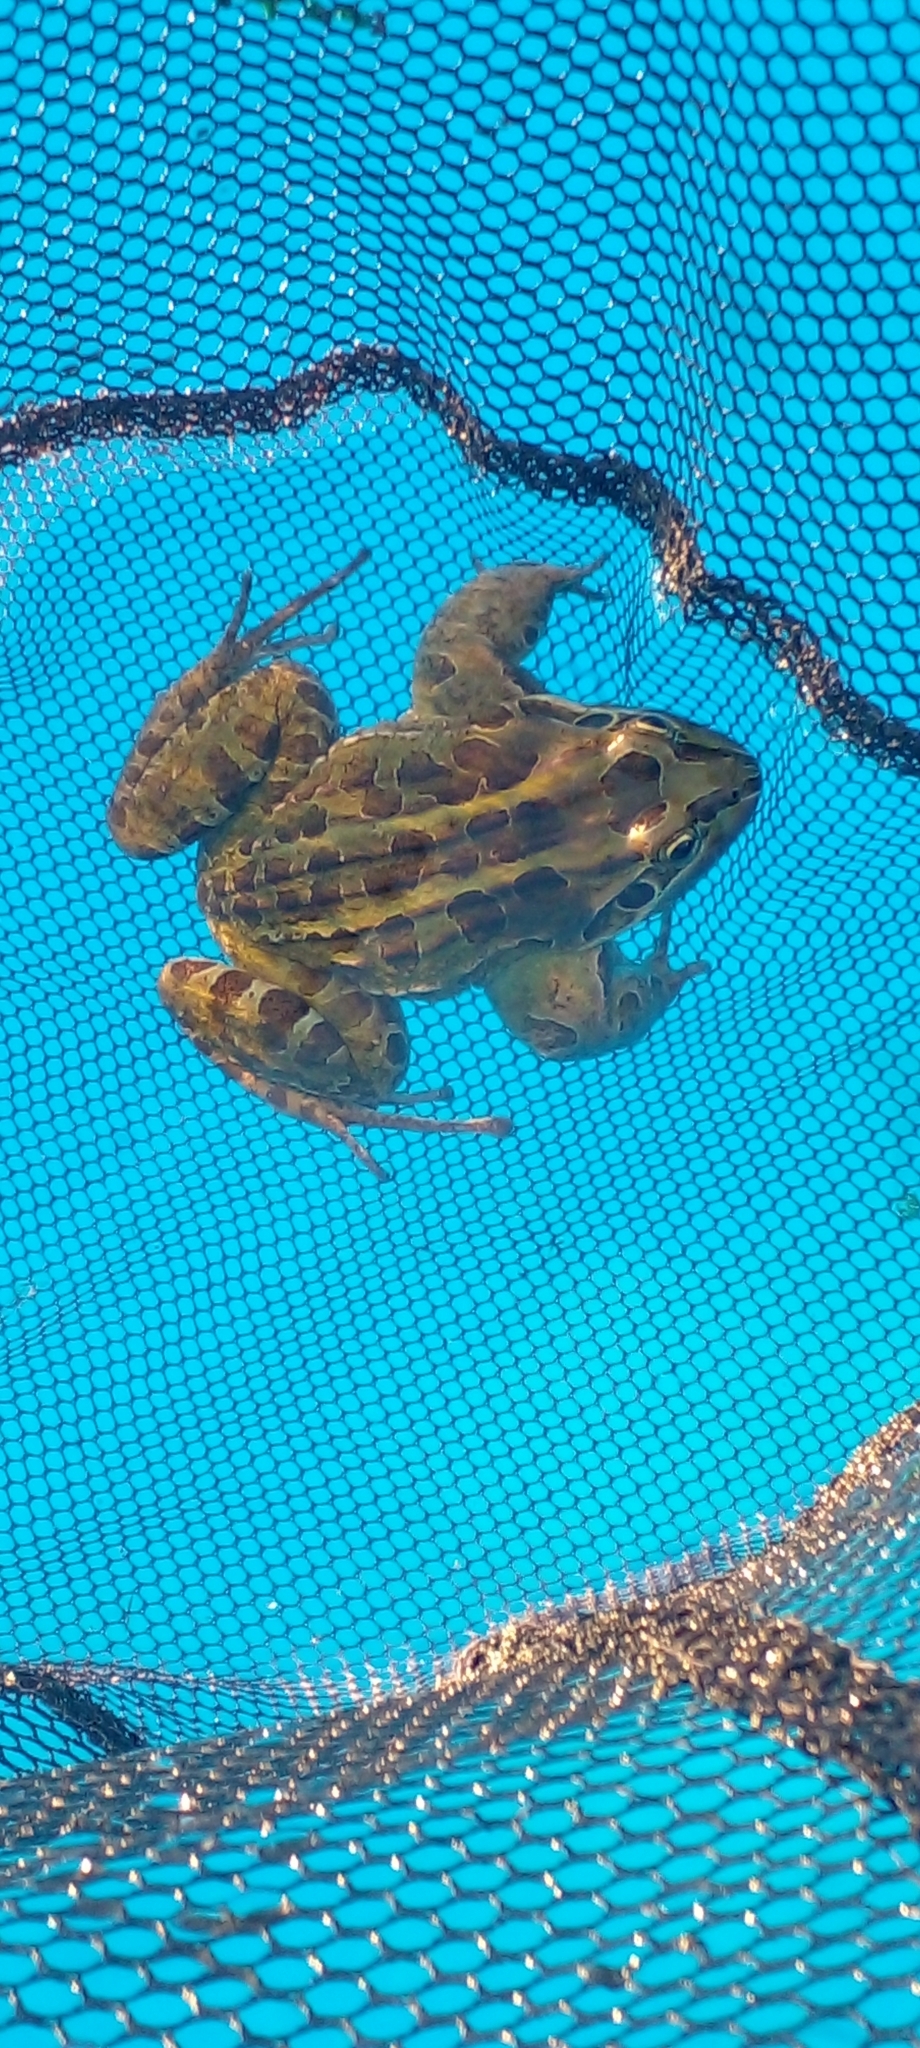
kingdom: Animalia
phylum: Chordata
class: Amphibia
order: Anura
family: Leptodactylidae
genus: Leptodactylus
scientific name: Leptodactylus luctator
